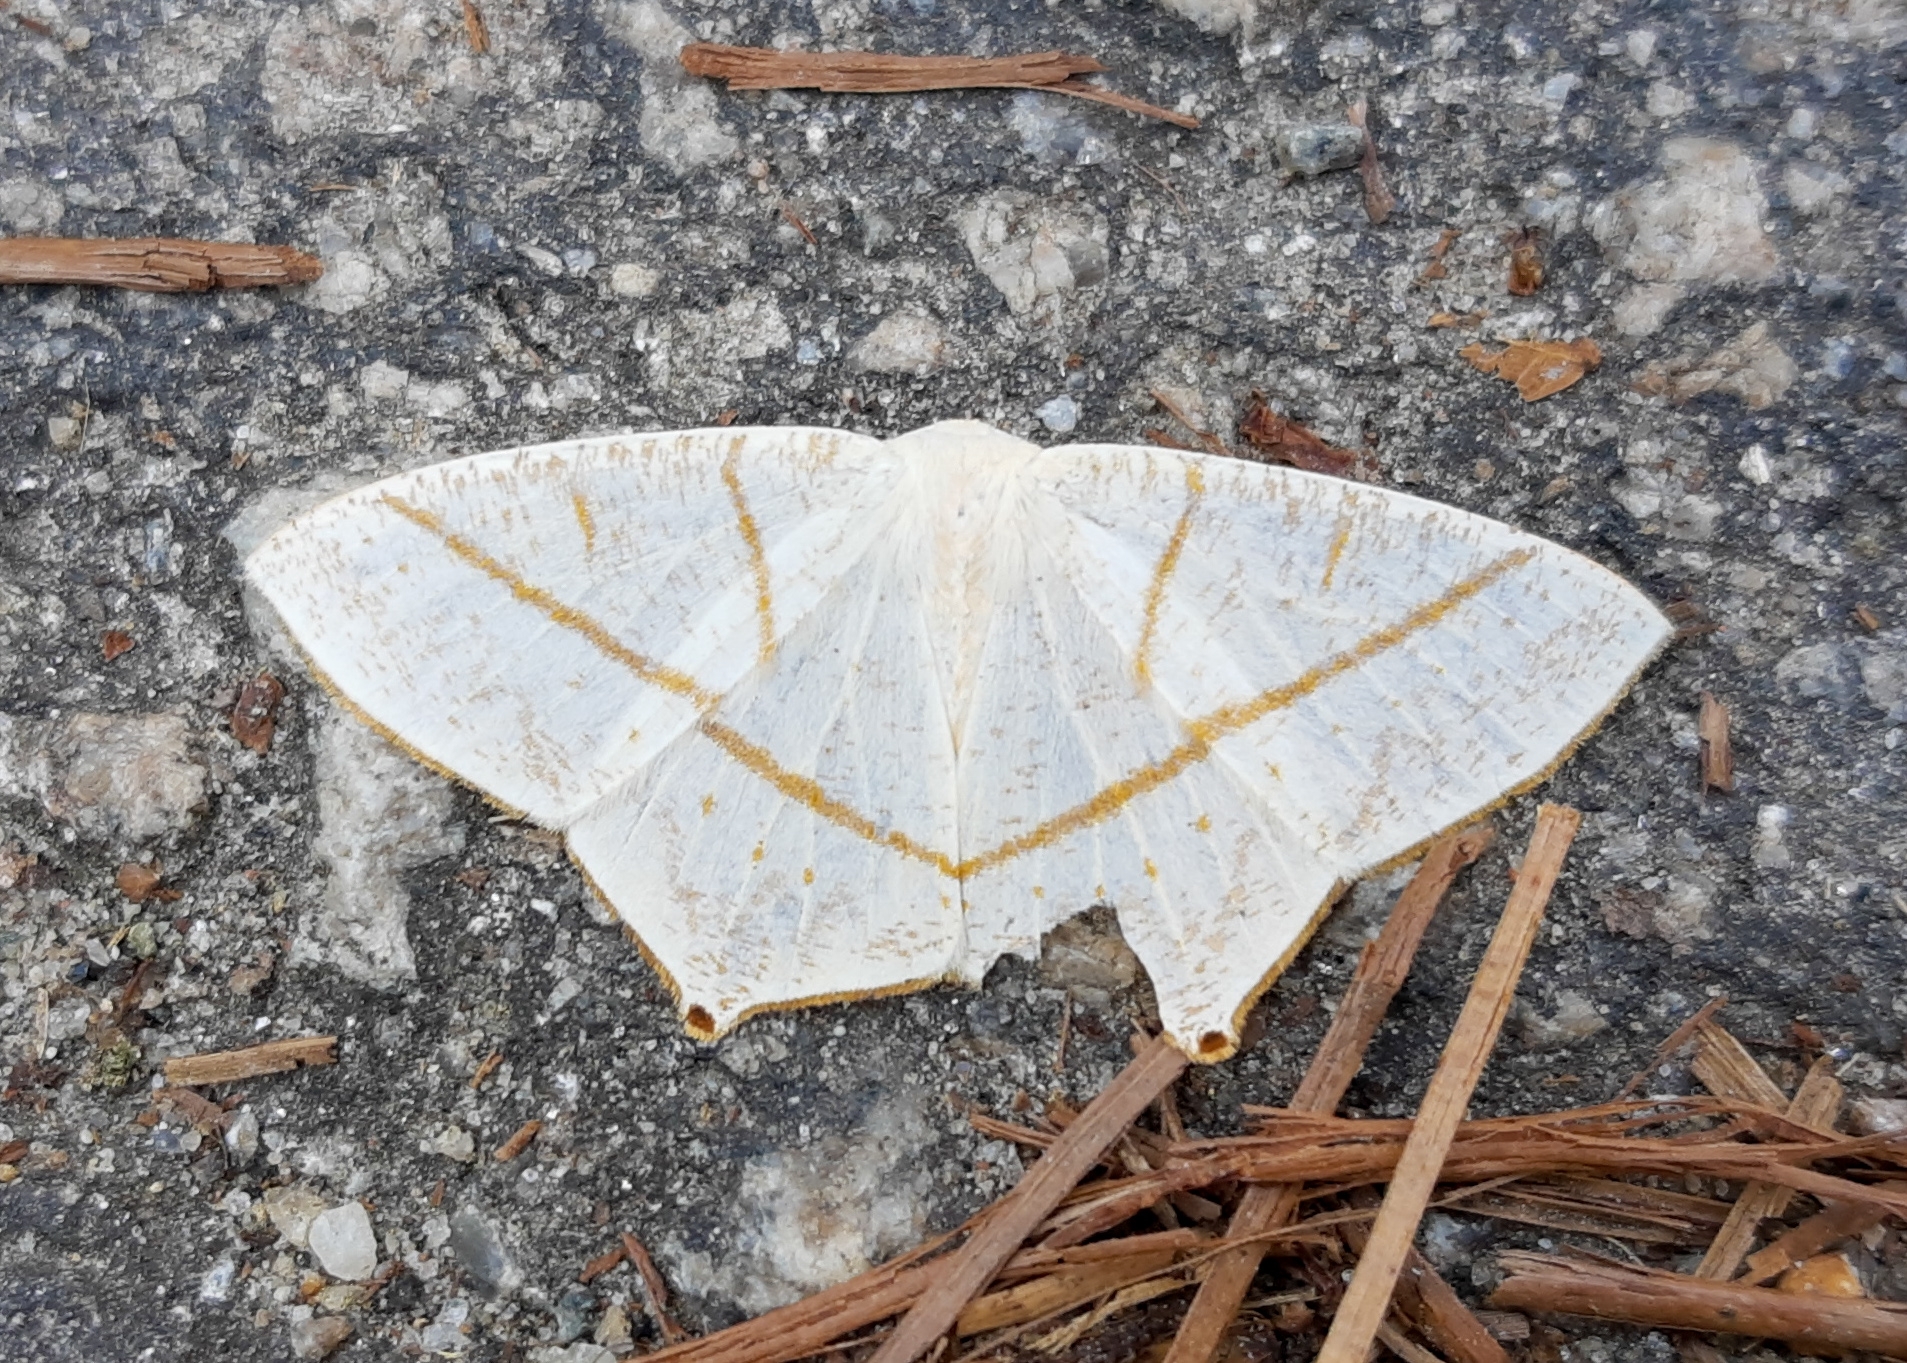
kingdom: Animalia
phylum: Arthropoda
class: Insecta
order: Lepidoptera
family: Geometridae
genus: Brachurapteryx
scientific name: Brachurapteryx breviaria
